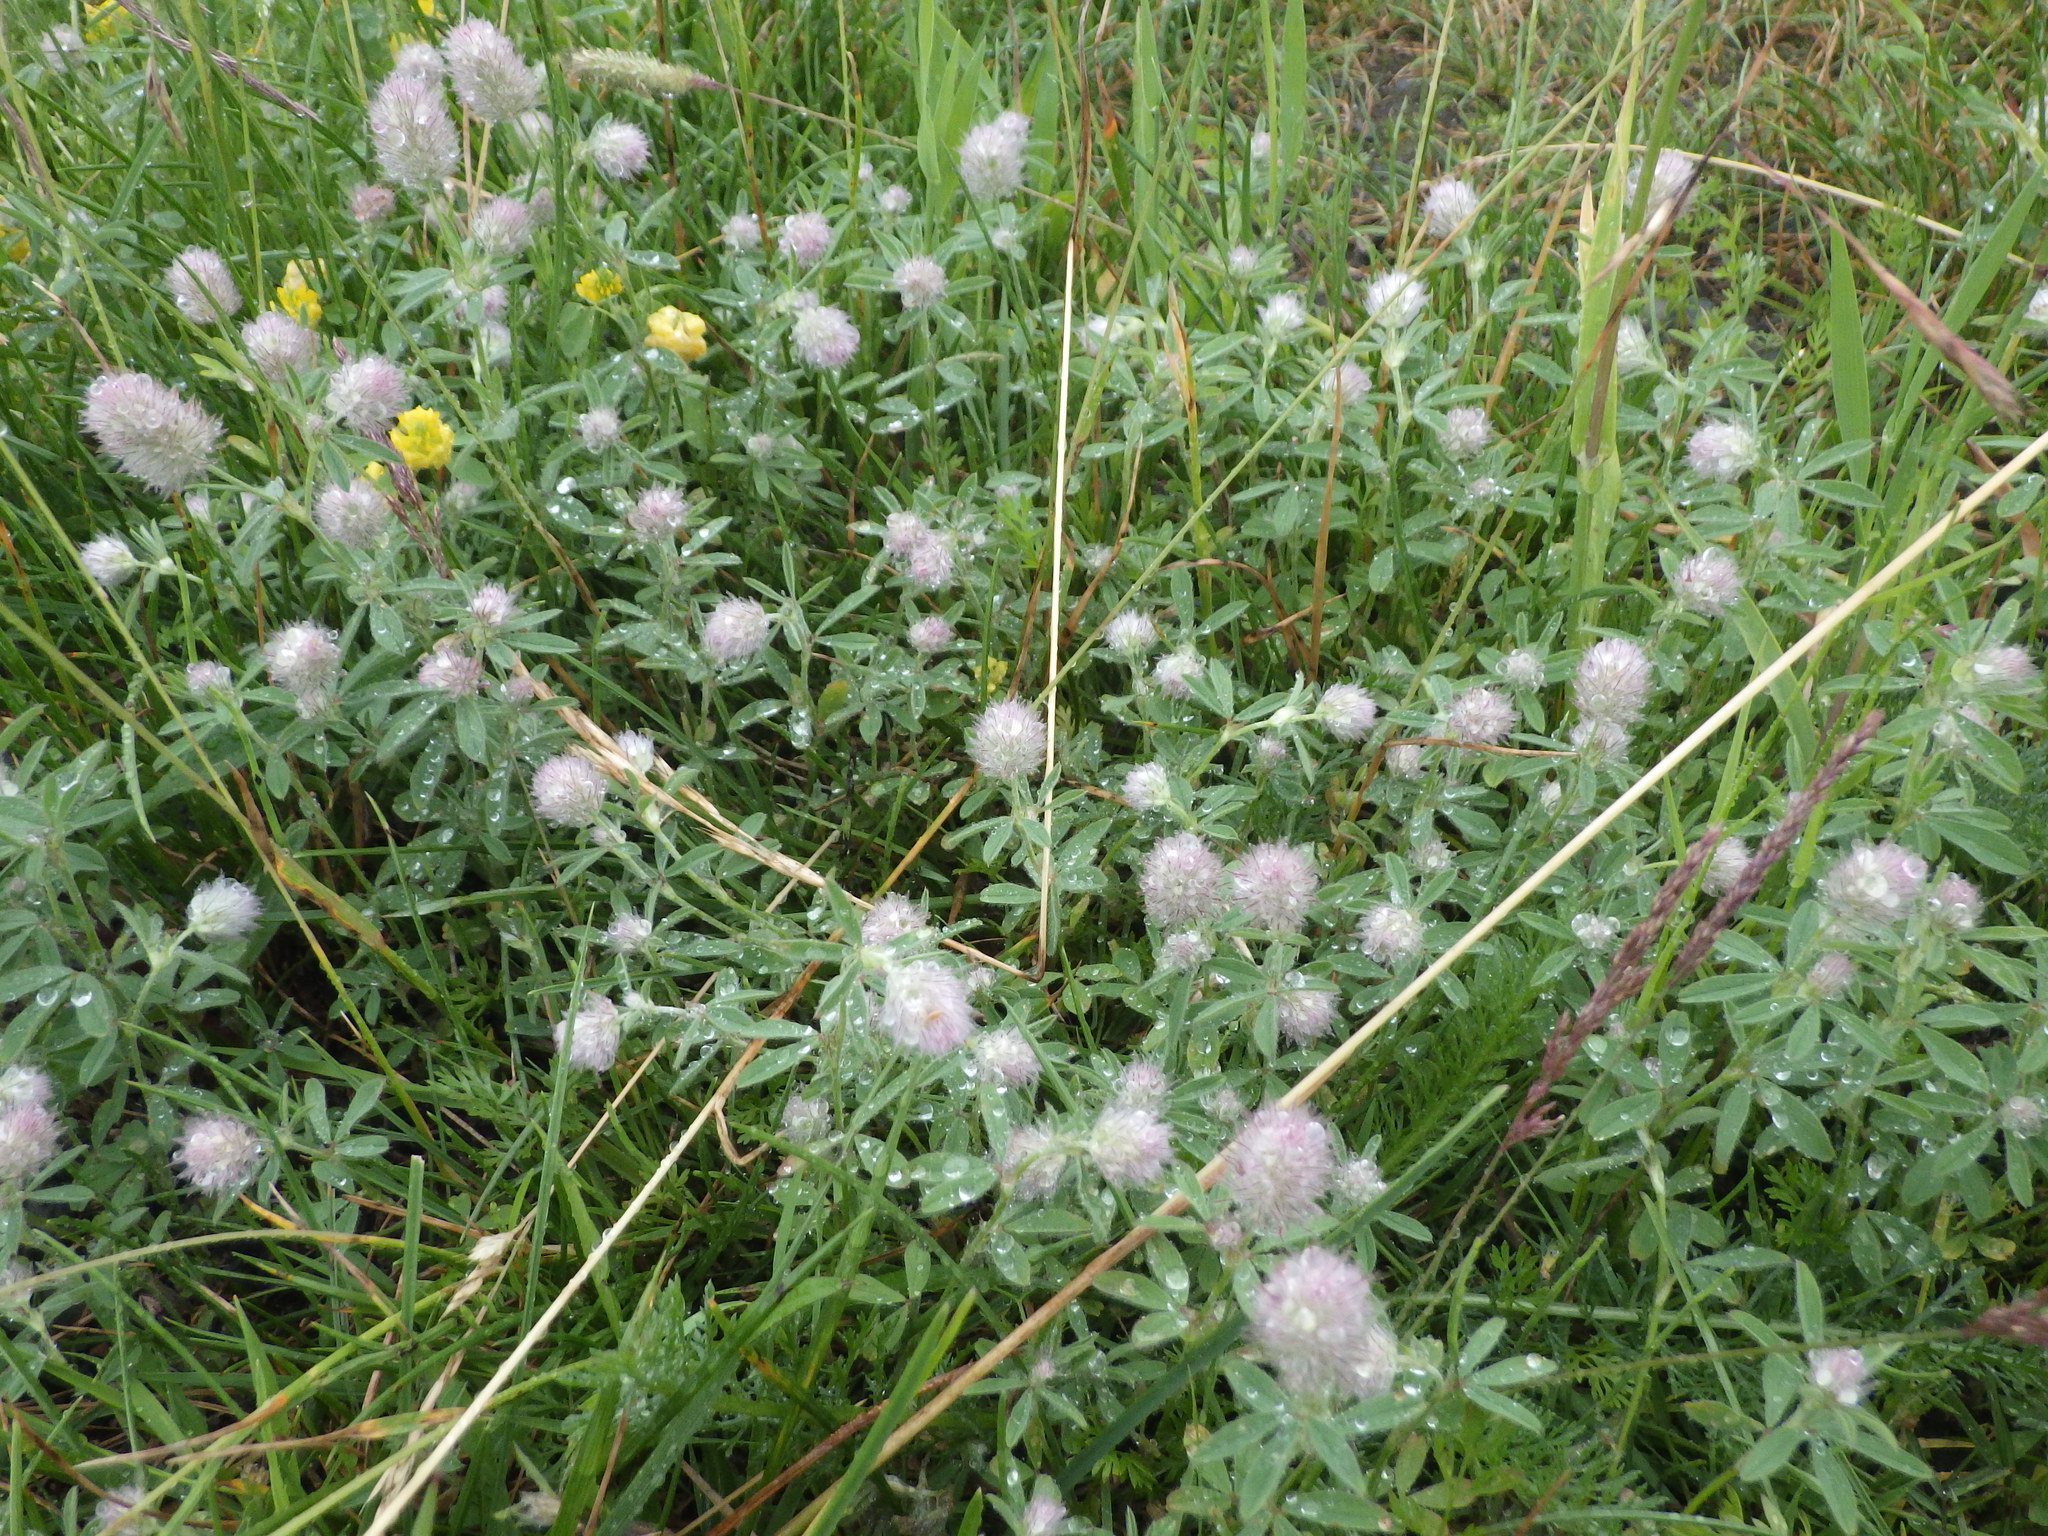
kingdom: Plantae
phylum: Tracheophyta
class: Magnoliopsida
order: Fabales
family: Fabaceae
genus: Trifolium
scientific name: Trifolium arvense
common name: Hare's-foot clover
